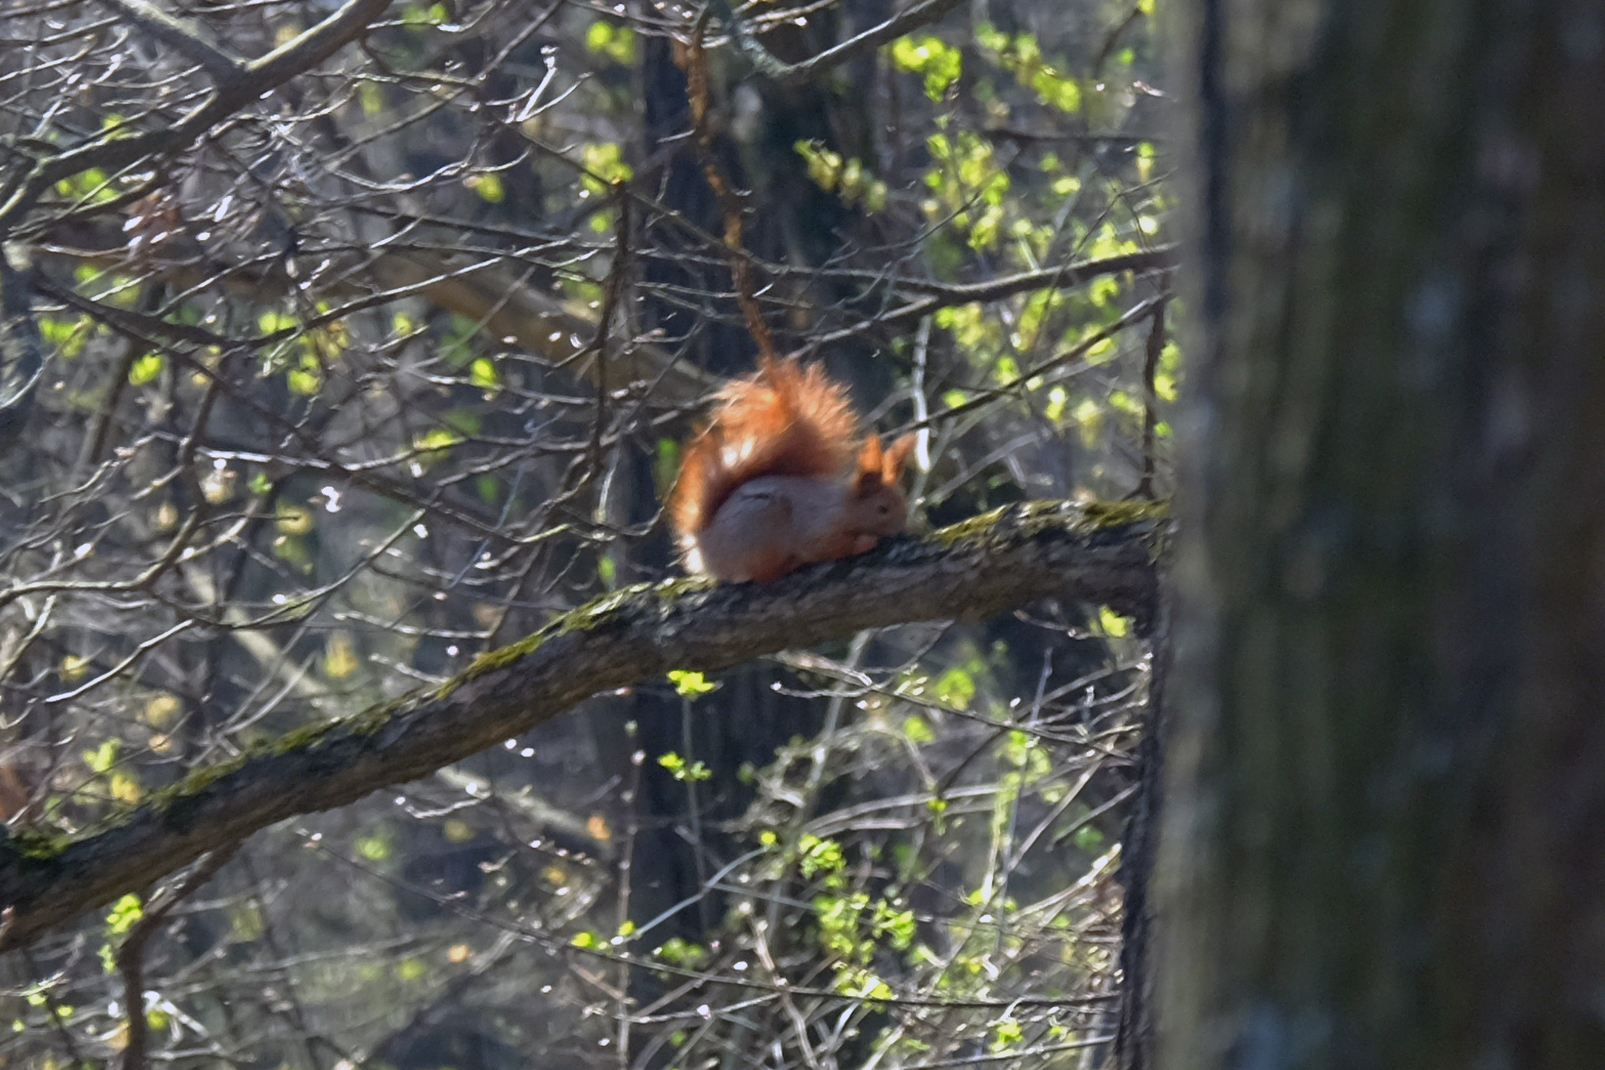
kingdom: Animalia
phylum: Chordata
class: Mammalia
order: Rodentia
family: Sciuridae
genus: Sciurus
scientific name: Sciurus vulgaris
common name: Eurasian red squirrel
